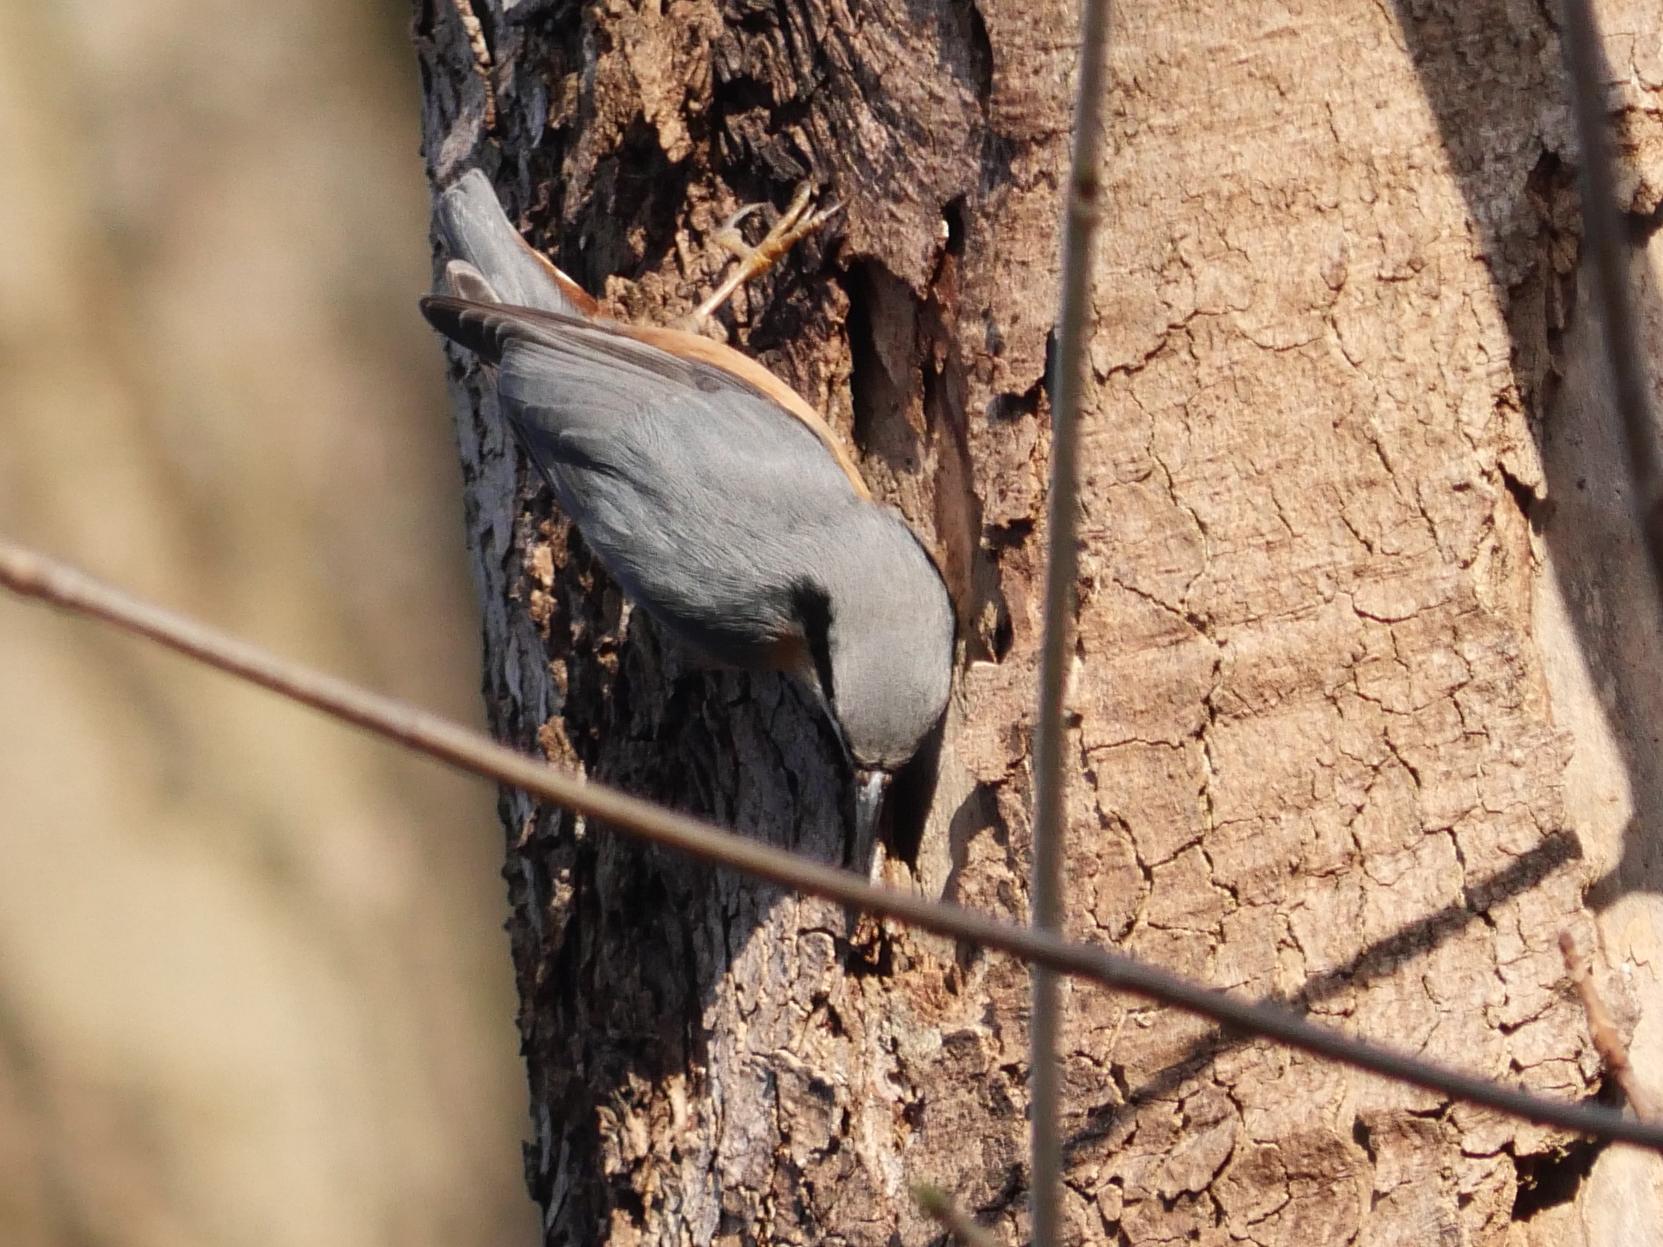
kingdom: Animalia
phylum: Chordata
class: Aves
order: Passeriformes
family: Sittidae
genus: Sitta
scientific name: Sitta europaea
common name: Eurasian nuthatch
